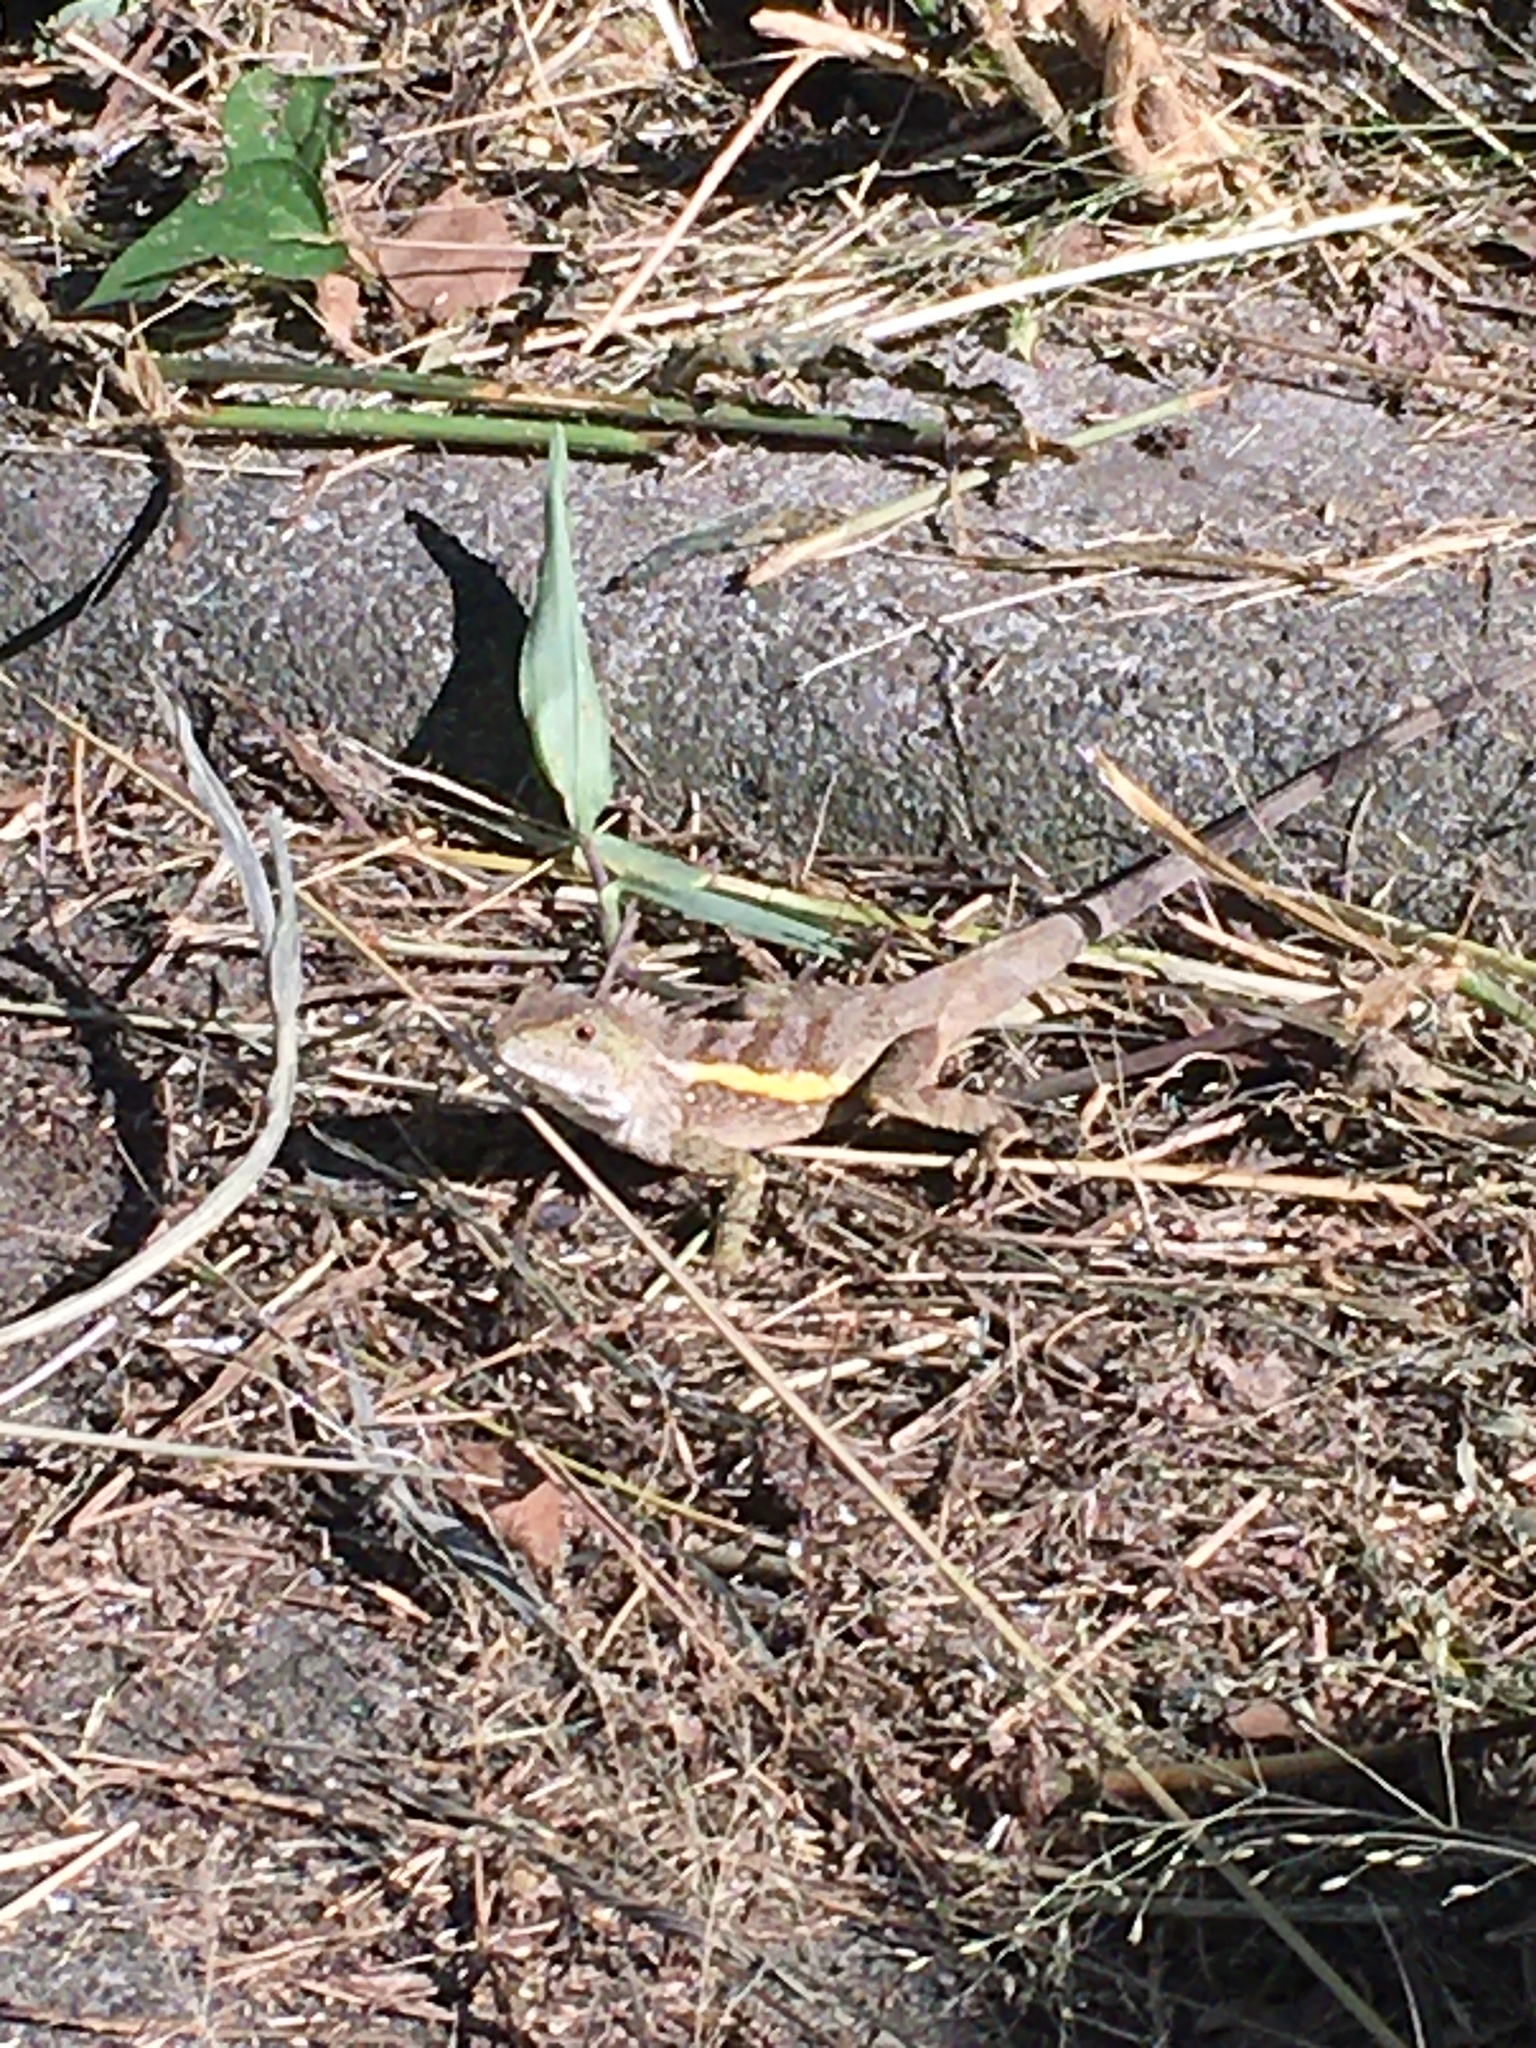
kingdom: Animalia
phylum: Chordata
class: Squamata
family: Agamidae
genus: Diploderma
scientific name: Diploderma swinhonis
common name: Taiwan japalure
